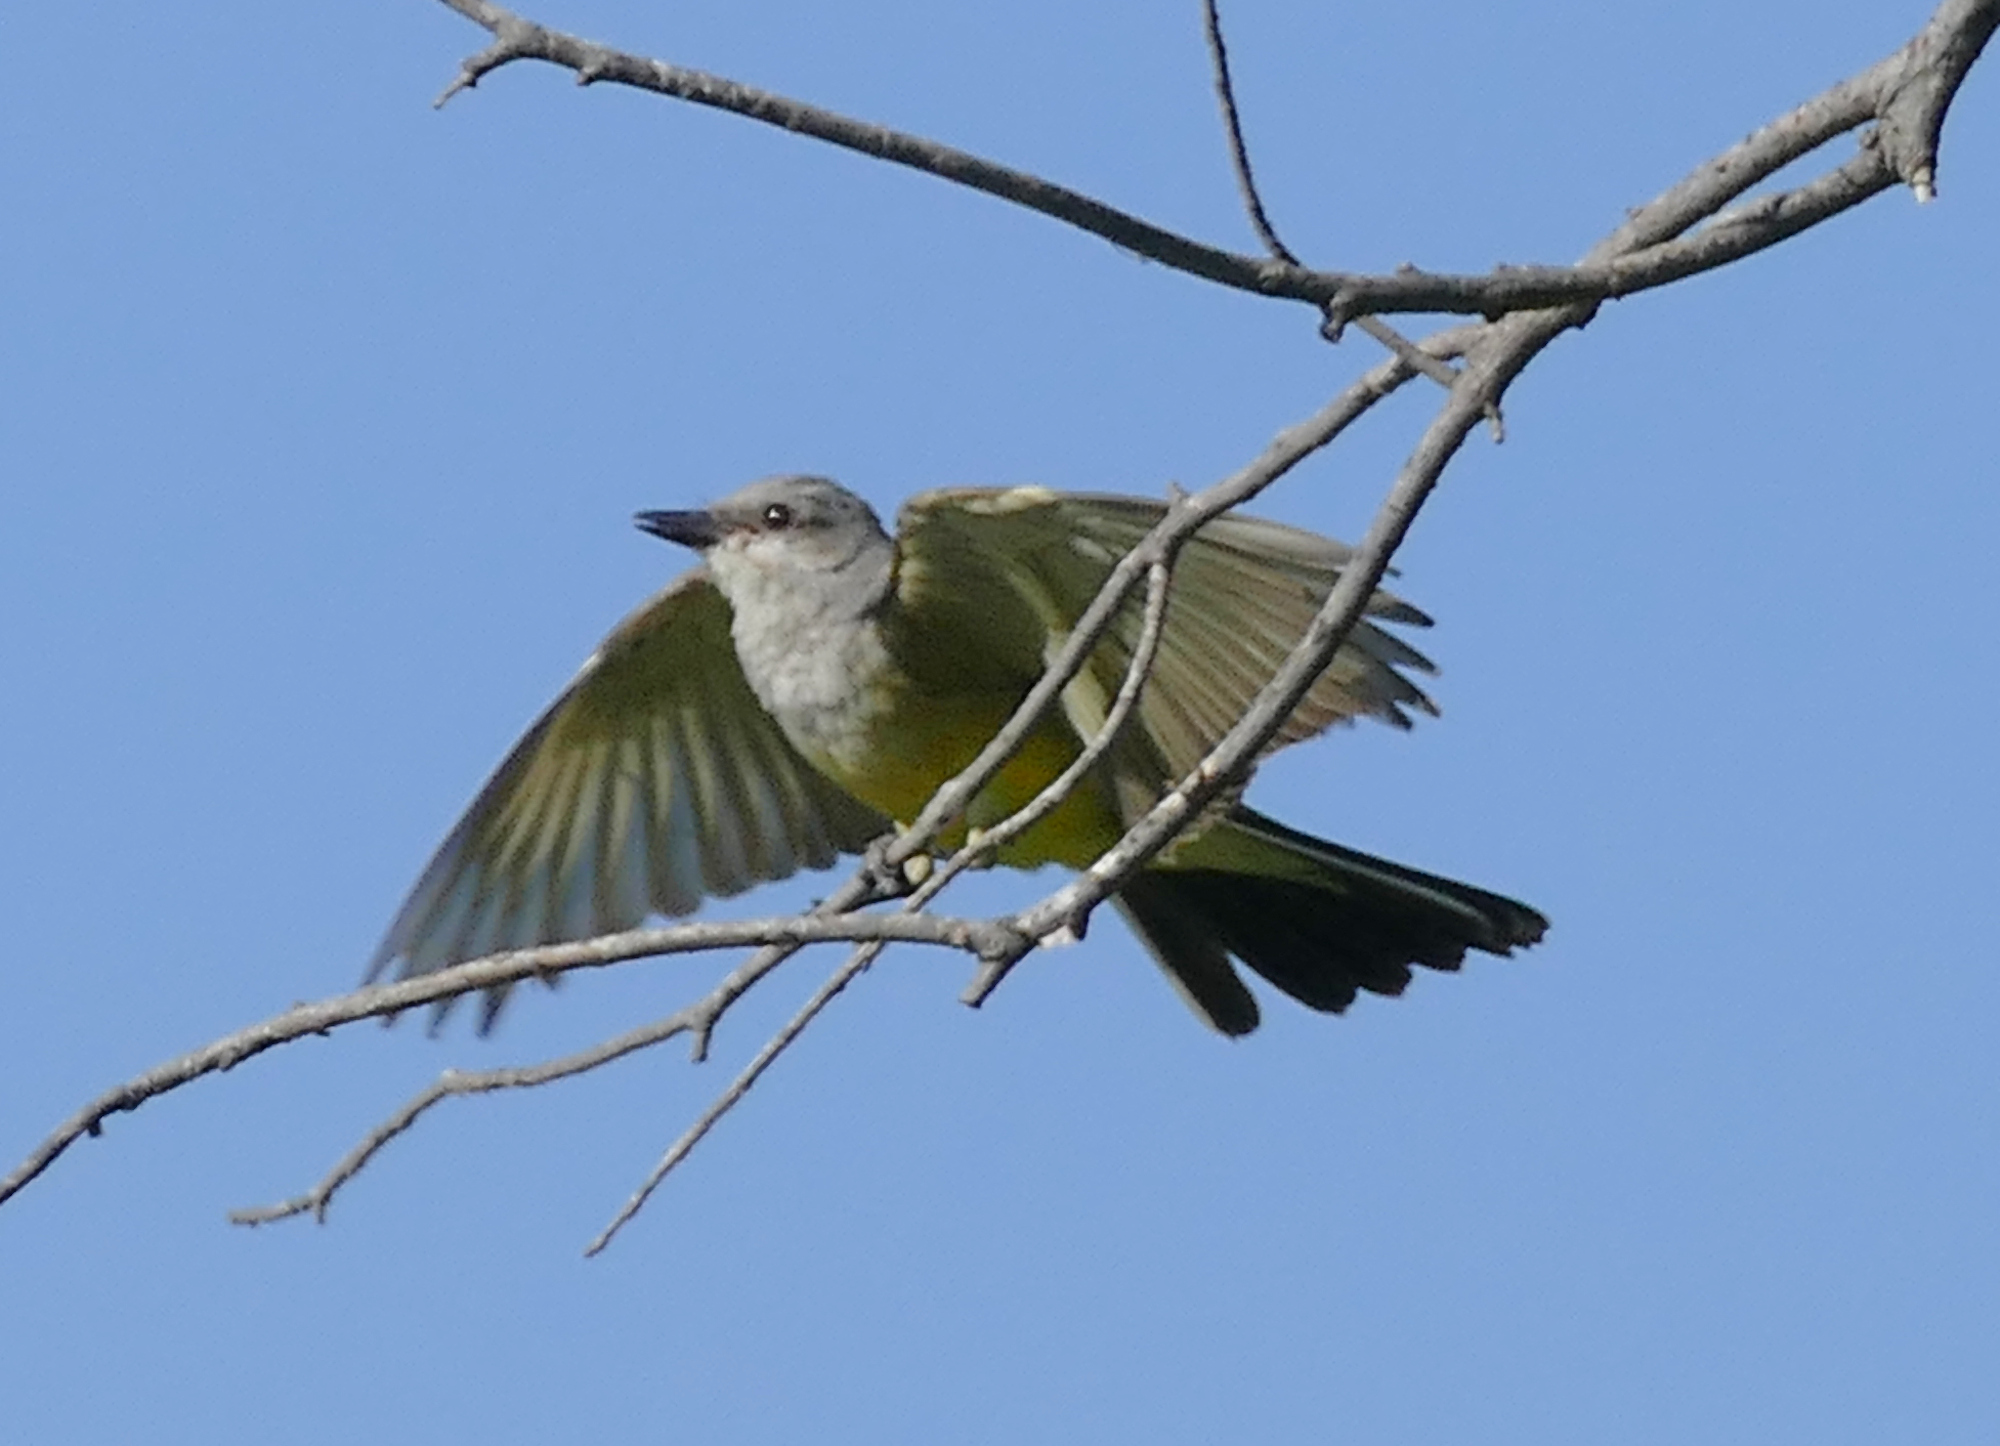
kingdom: Animalia
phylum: Chordata
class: Aves
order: Passeriformes
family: Tyrannidae
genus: Tyrannus
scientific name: Tyrannus verticalis
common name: Western kingbird
